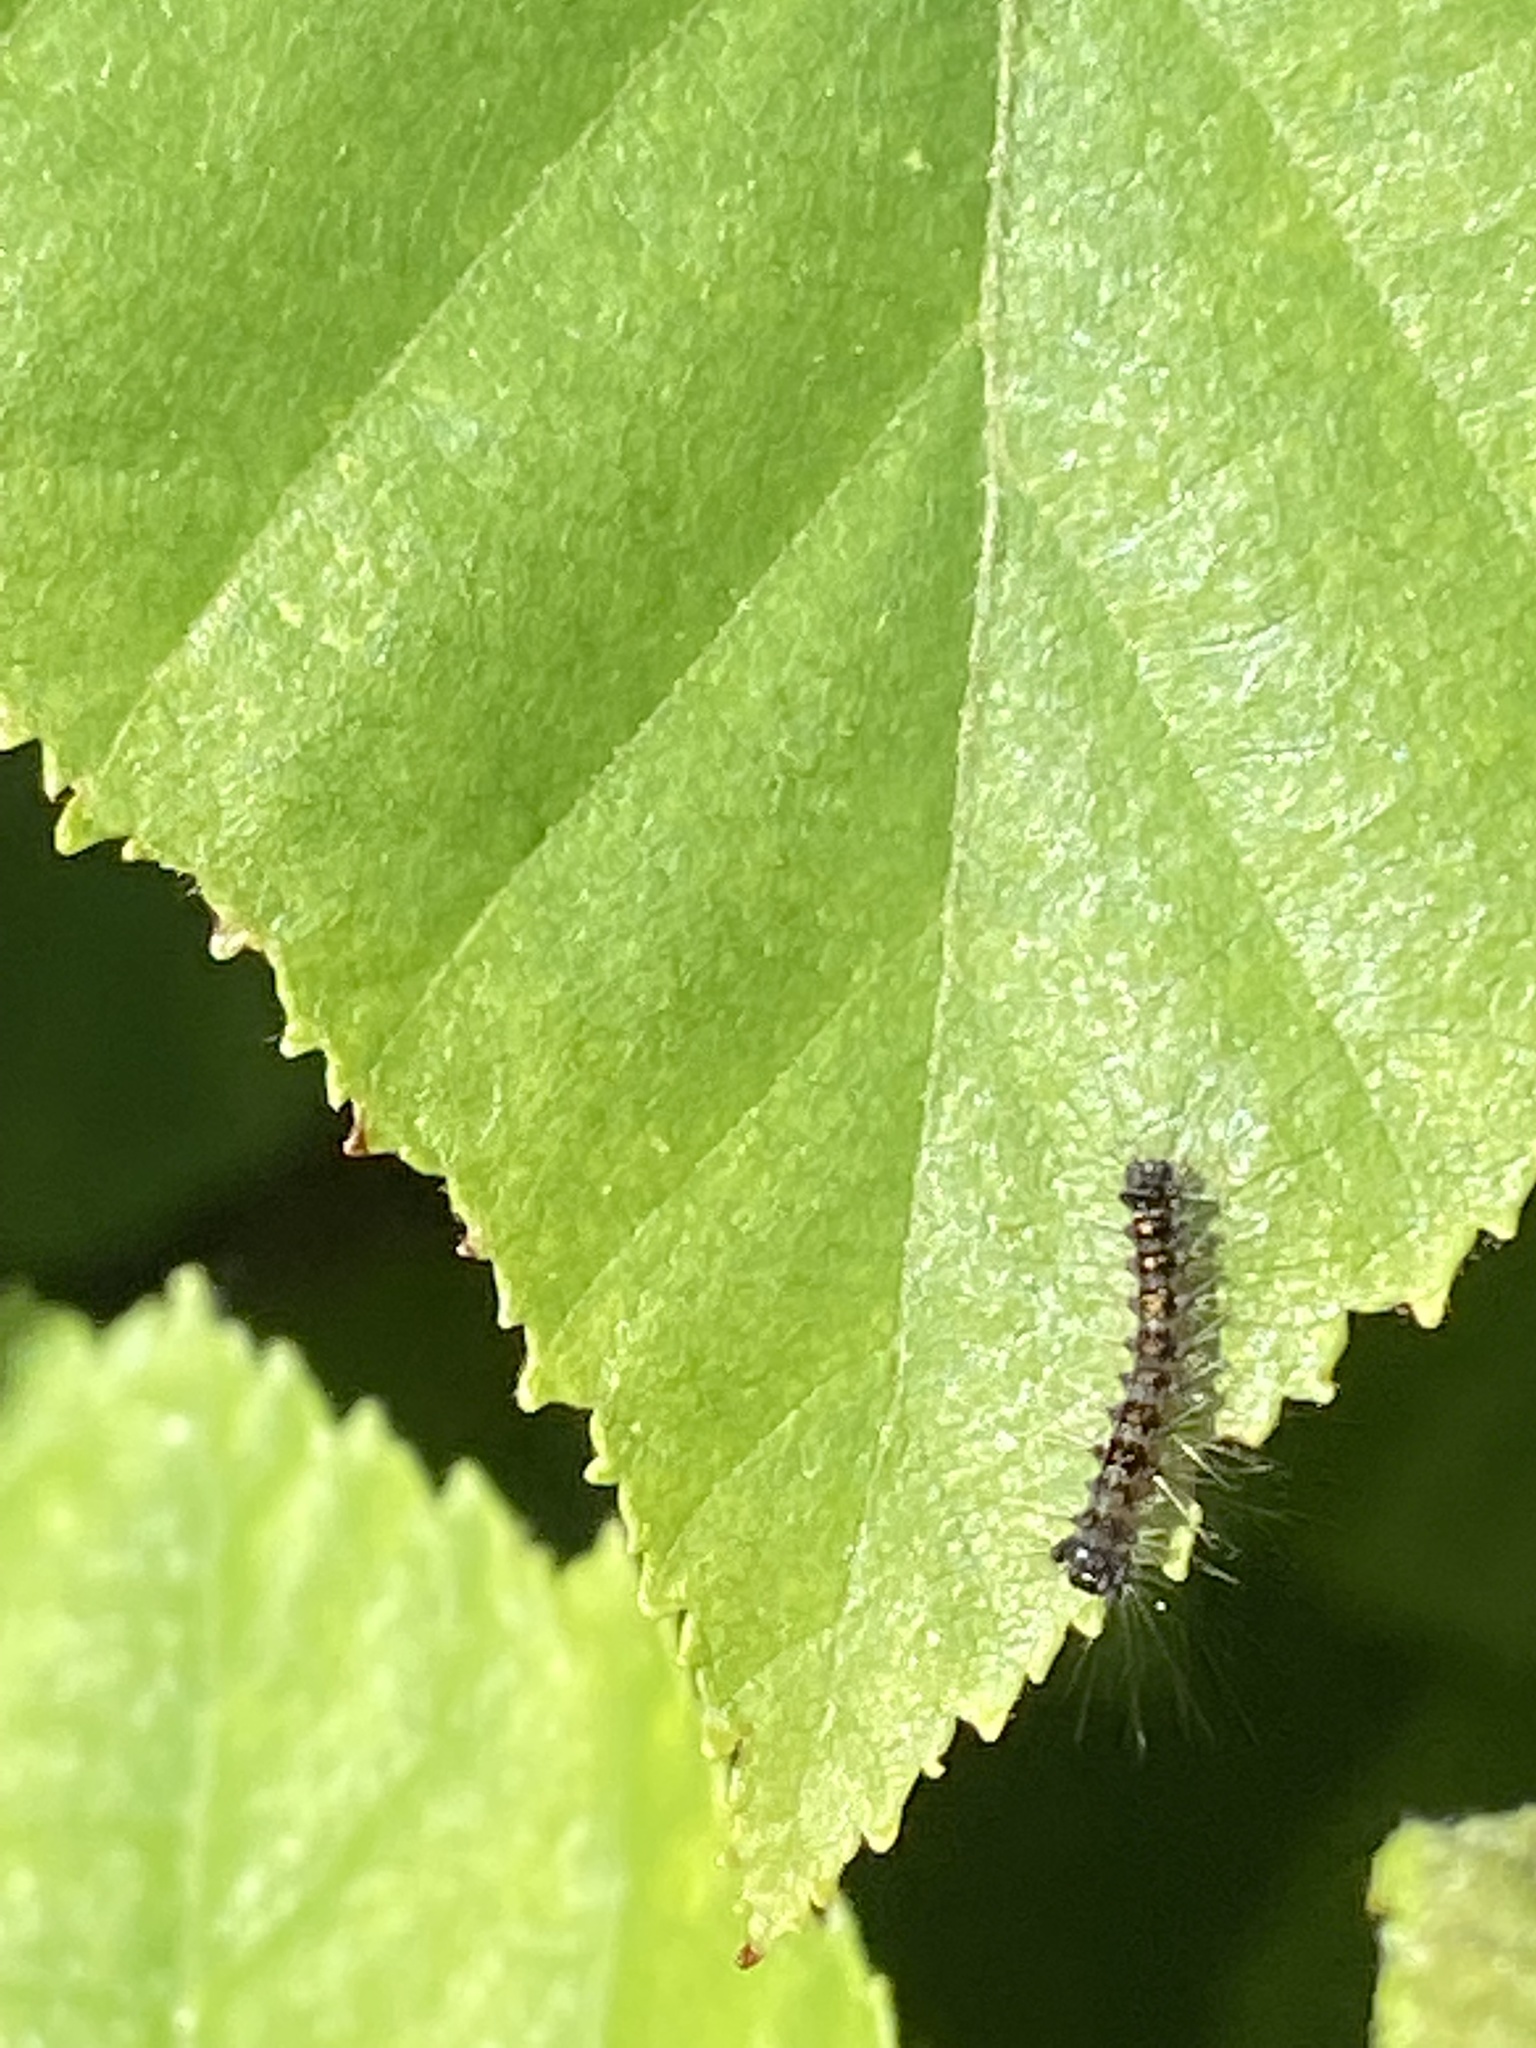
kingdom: Animalia
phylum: Arthropoda
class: Insecta
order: Lepidoptera
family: Erebidae
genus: Lymantria
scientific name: Lymantria dispar
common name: Gypsy moth
